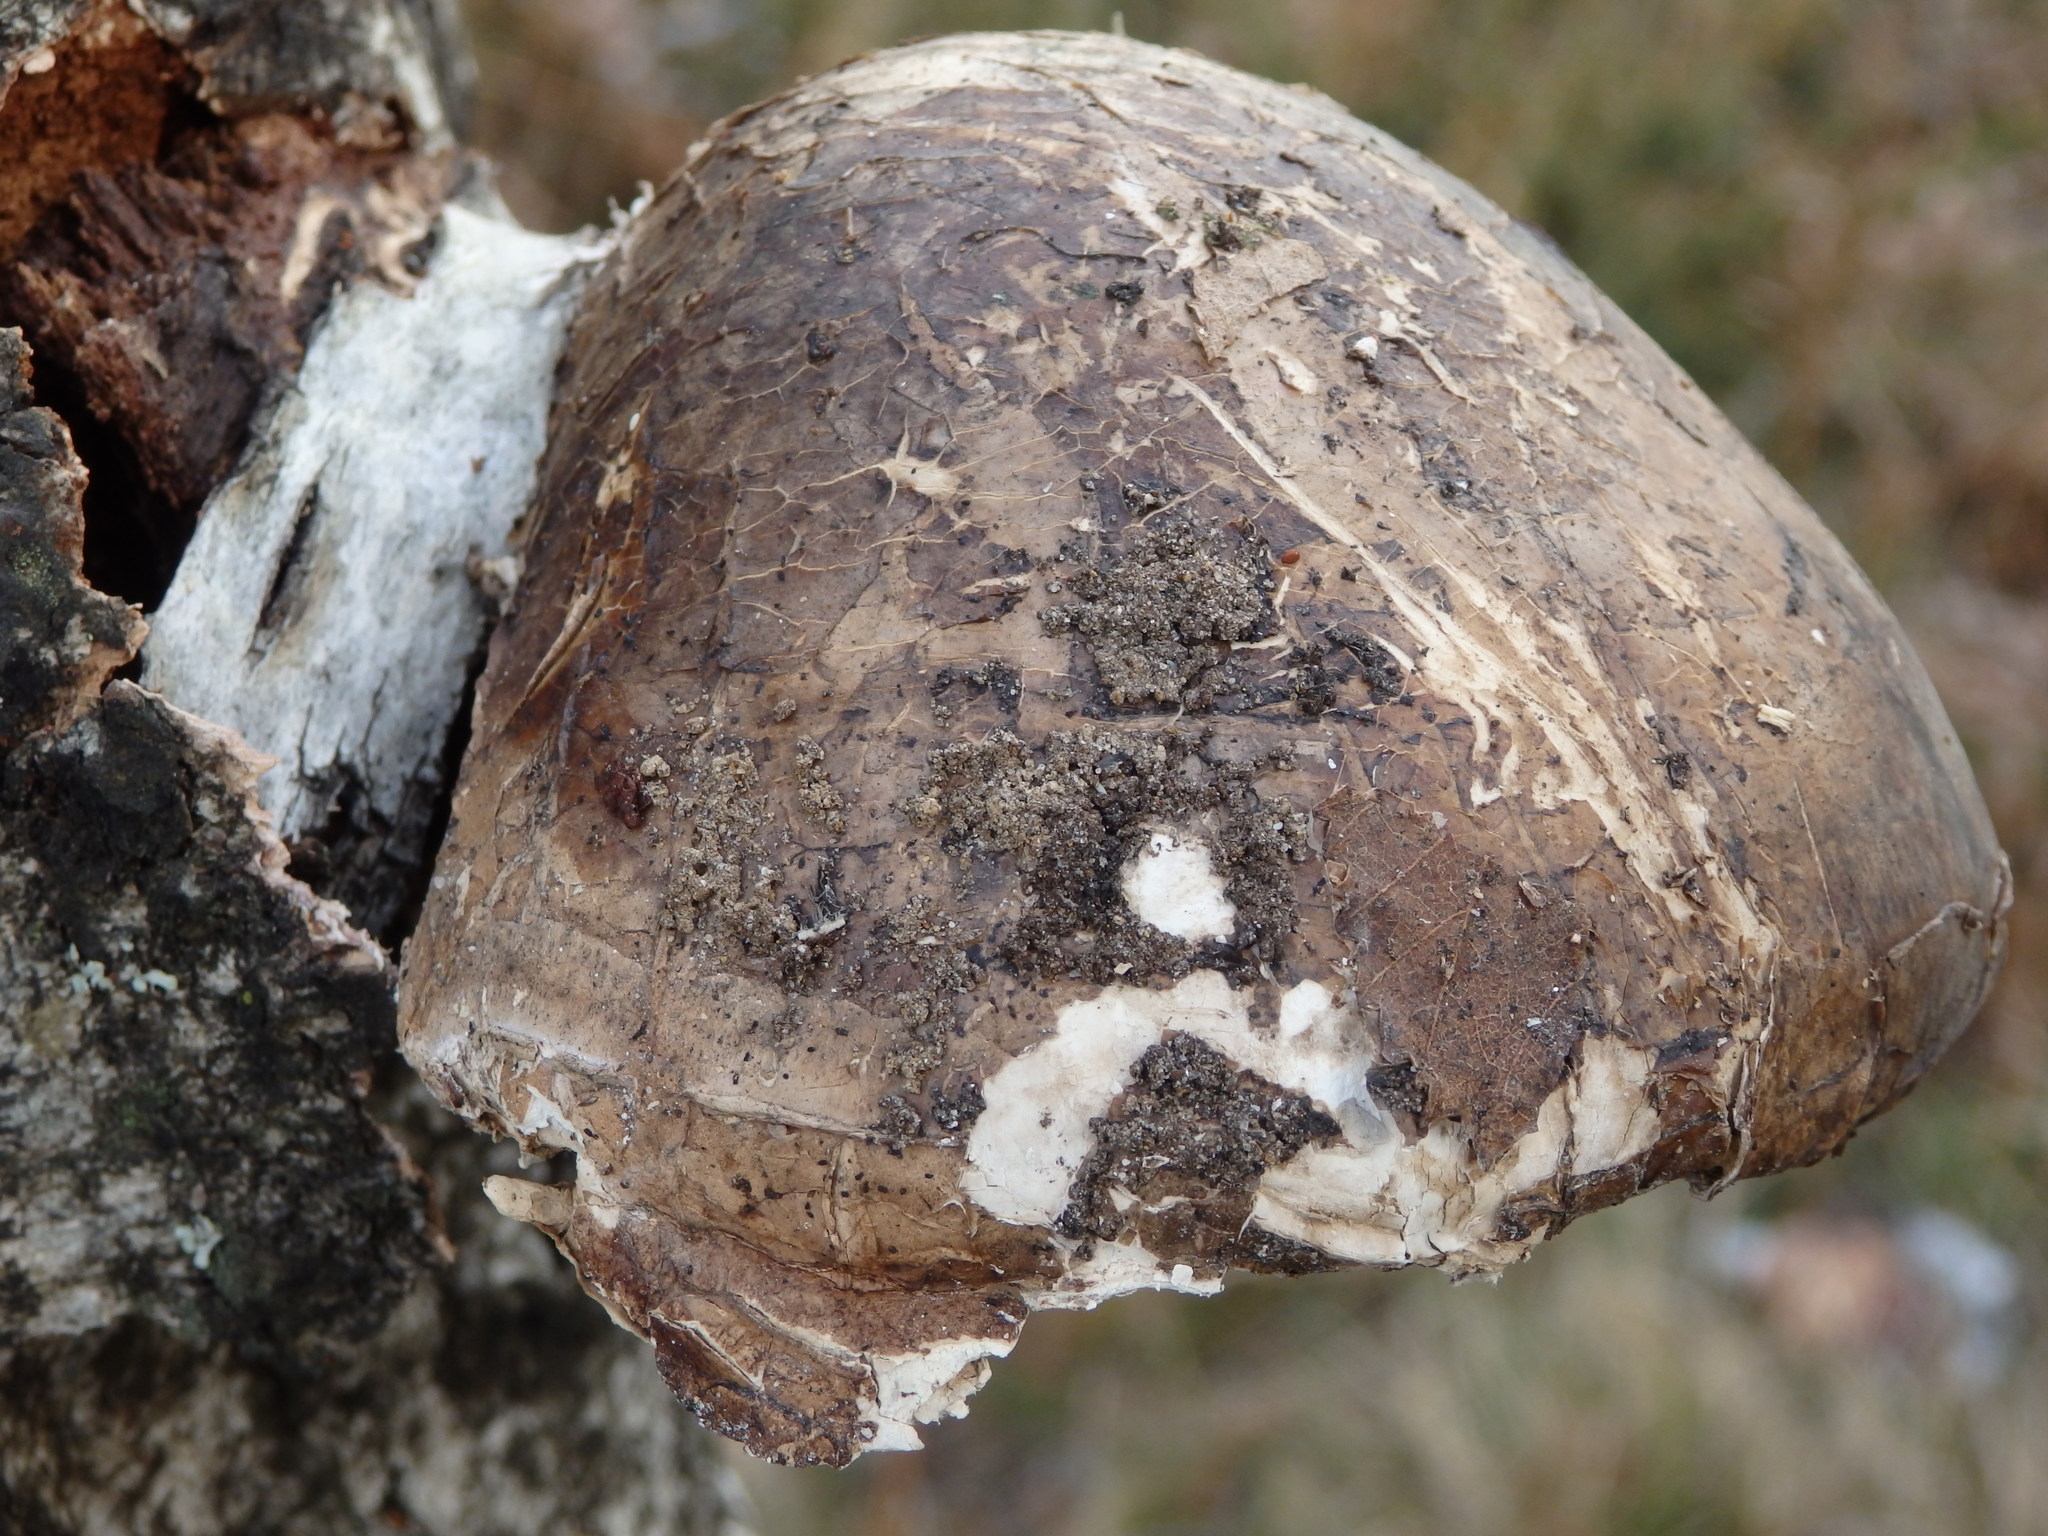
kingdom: Fungi
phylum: Basidiomycota
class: Agaricomycetes
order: Polyporales
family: Fomitopsidaceae
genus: Fomitopsis
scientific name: Fomitopsis betulina
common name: Birch polypore
